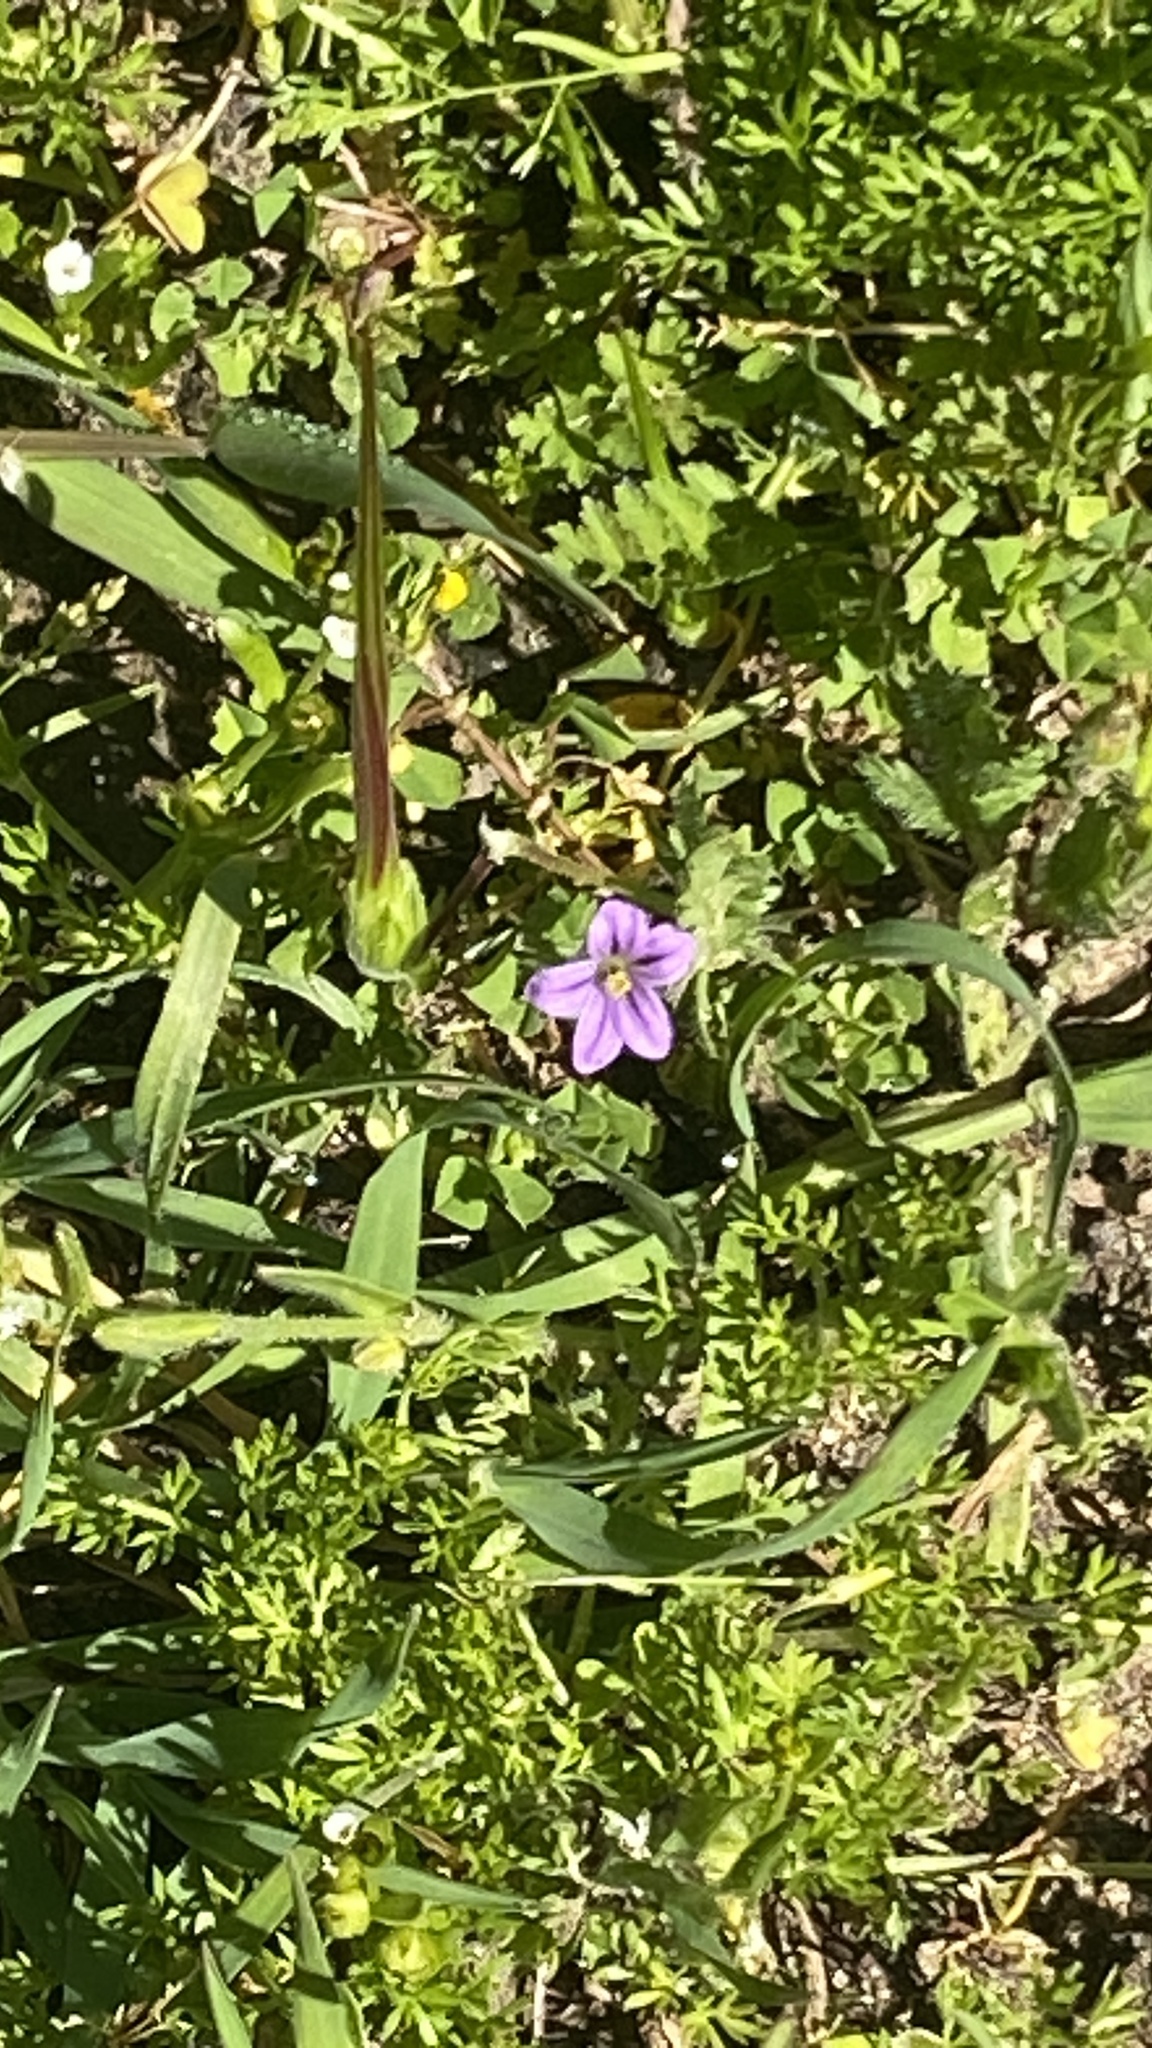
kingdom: Plantae
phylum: Tracheophyta
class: Magnoliopsida
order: Geraniales
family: Geraniaceae
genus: Erodium
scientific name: Erodium brachycarpum
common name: Hairy-pitted stork's-bill
